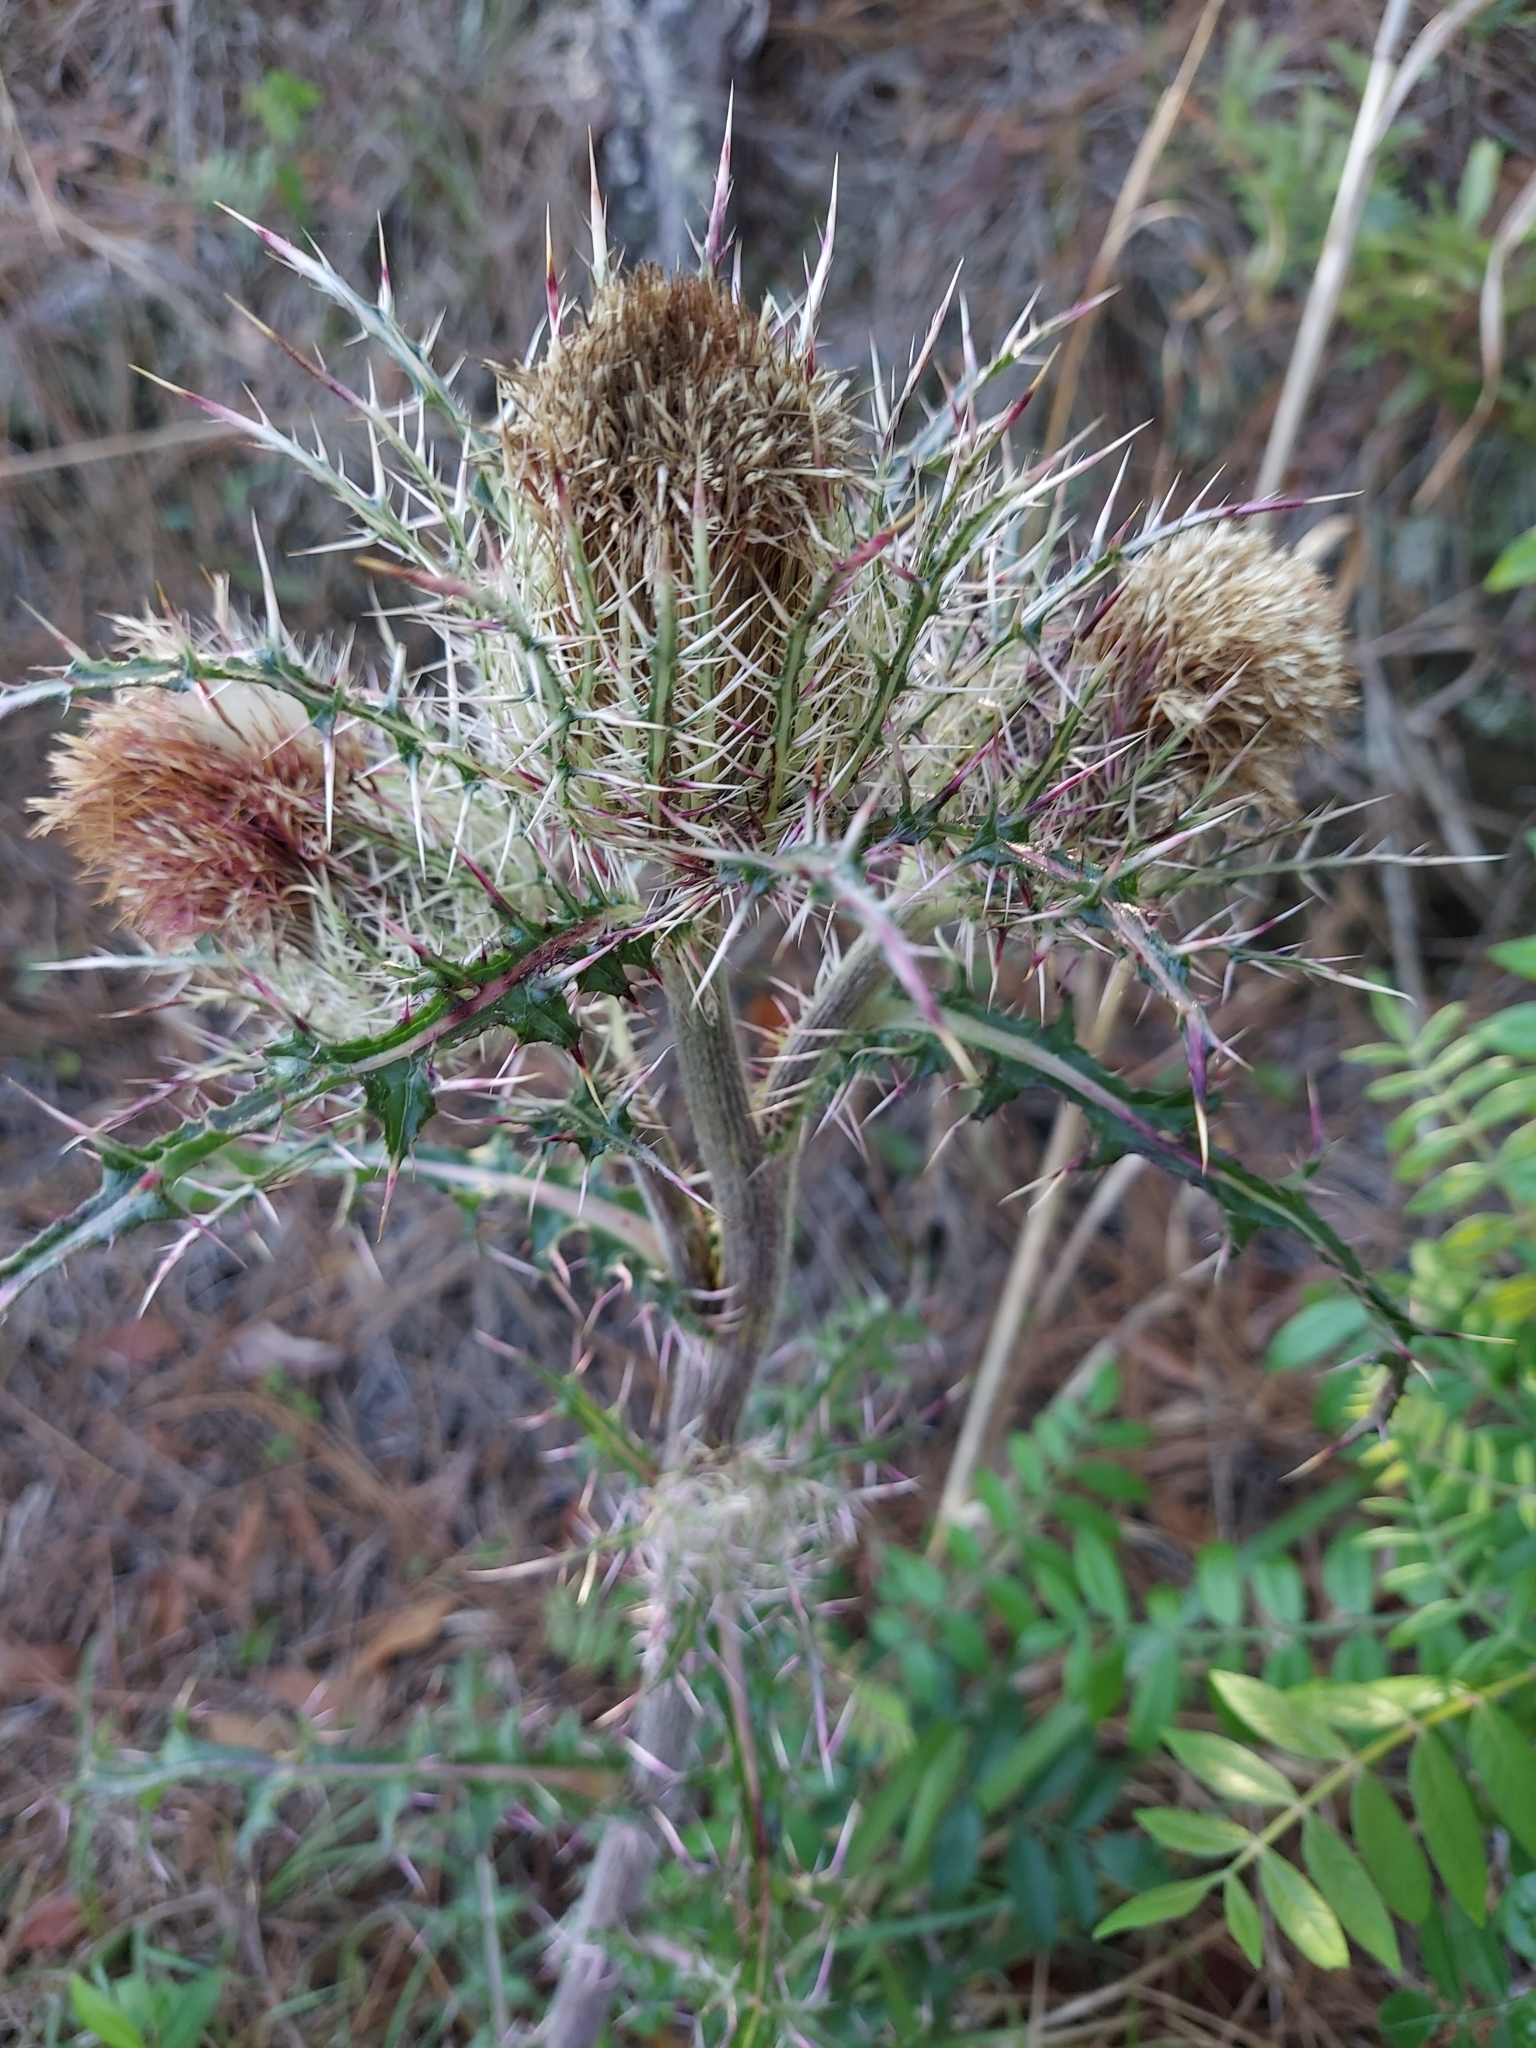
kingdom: Plantae
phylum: Tracheophyta
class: Magnoliopsida
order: Asterales
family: Asteraceae
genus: Cirsium
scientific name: Cirsium horridulum
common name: Bristly thistle
